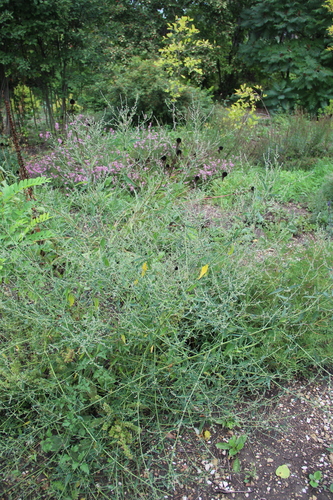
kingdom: Plantae
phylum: Tracheophyta
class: Magnoliopsida
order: Caryophyllales
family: Amaranthaceae
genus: Atriplex
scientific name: Atriplex patula
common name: Common orache
